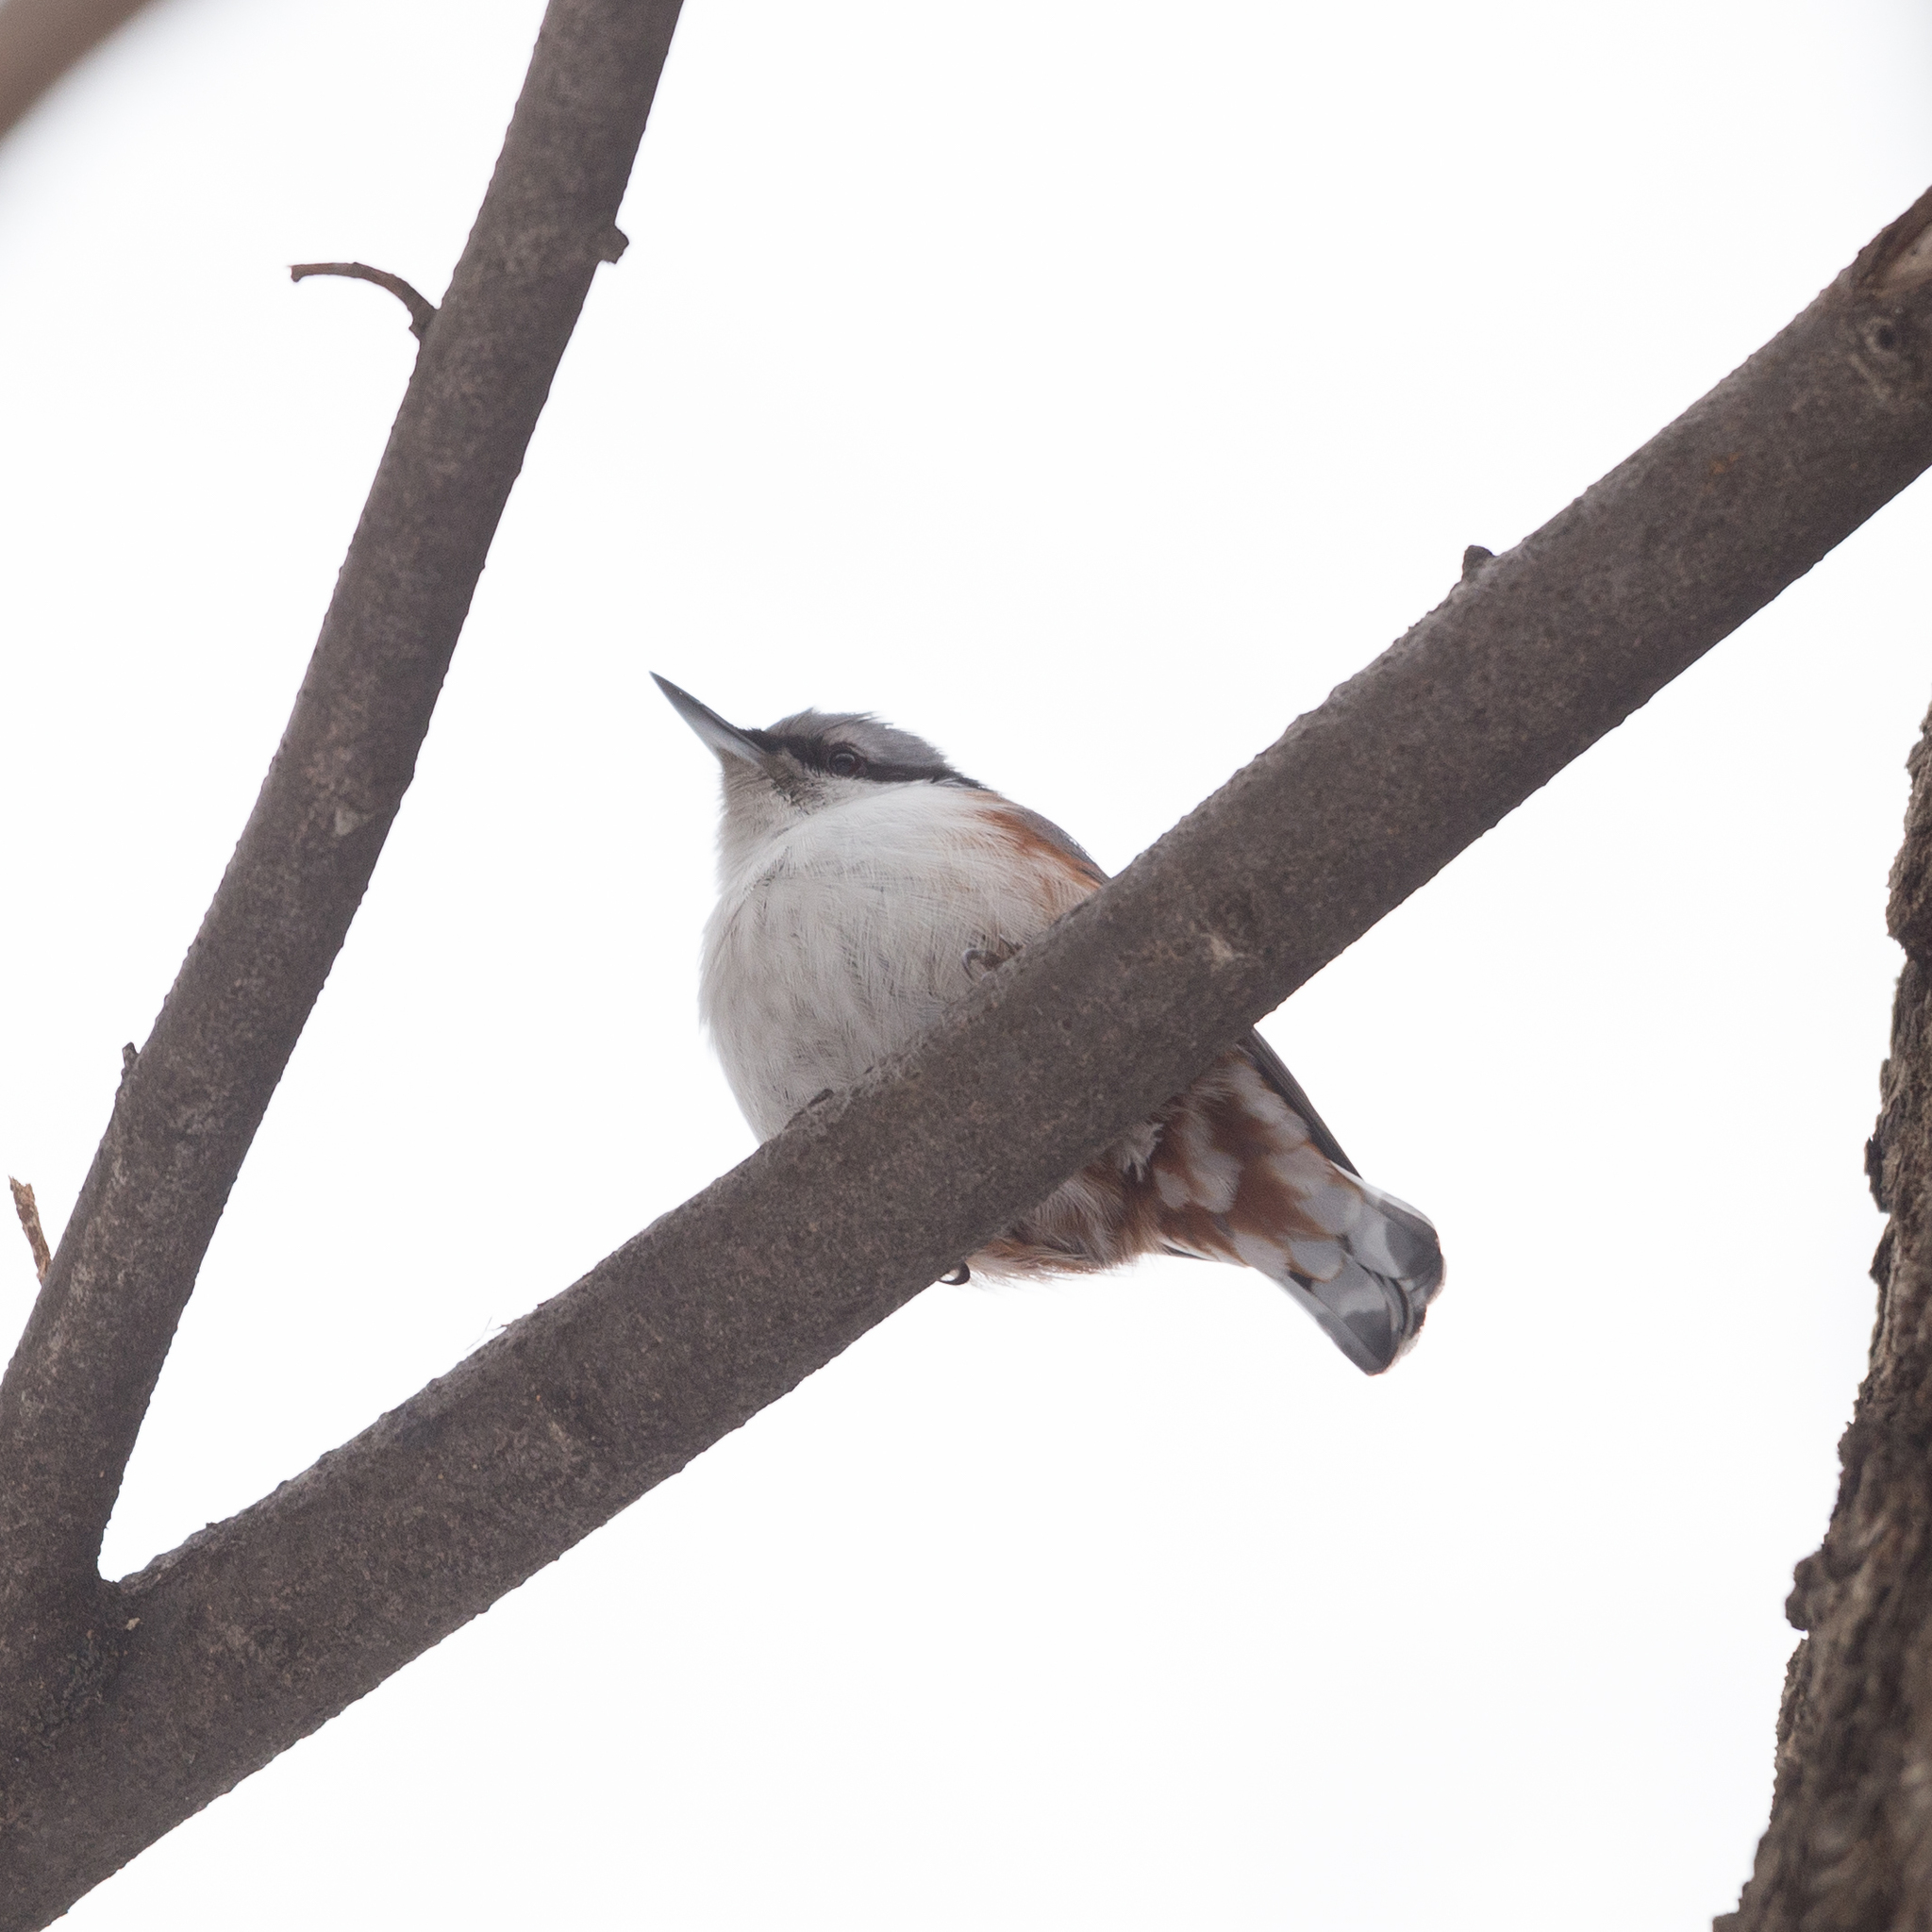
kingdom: Animalia
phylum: Chordata
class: Aves
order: Passeriformes
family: Sittidae
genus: Sitta
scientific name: Sitta europaea
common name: Eurasian nuthatch
